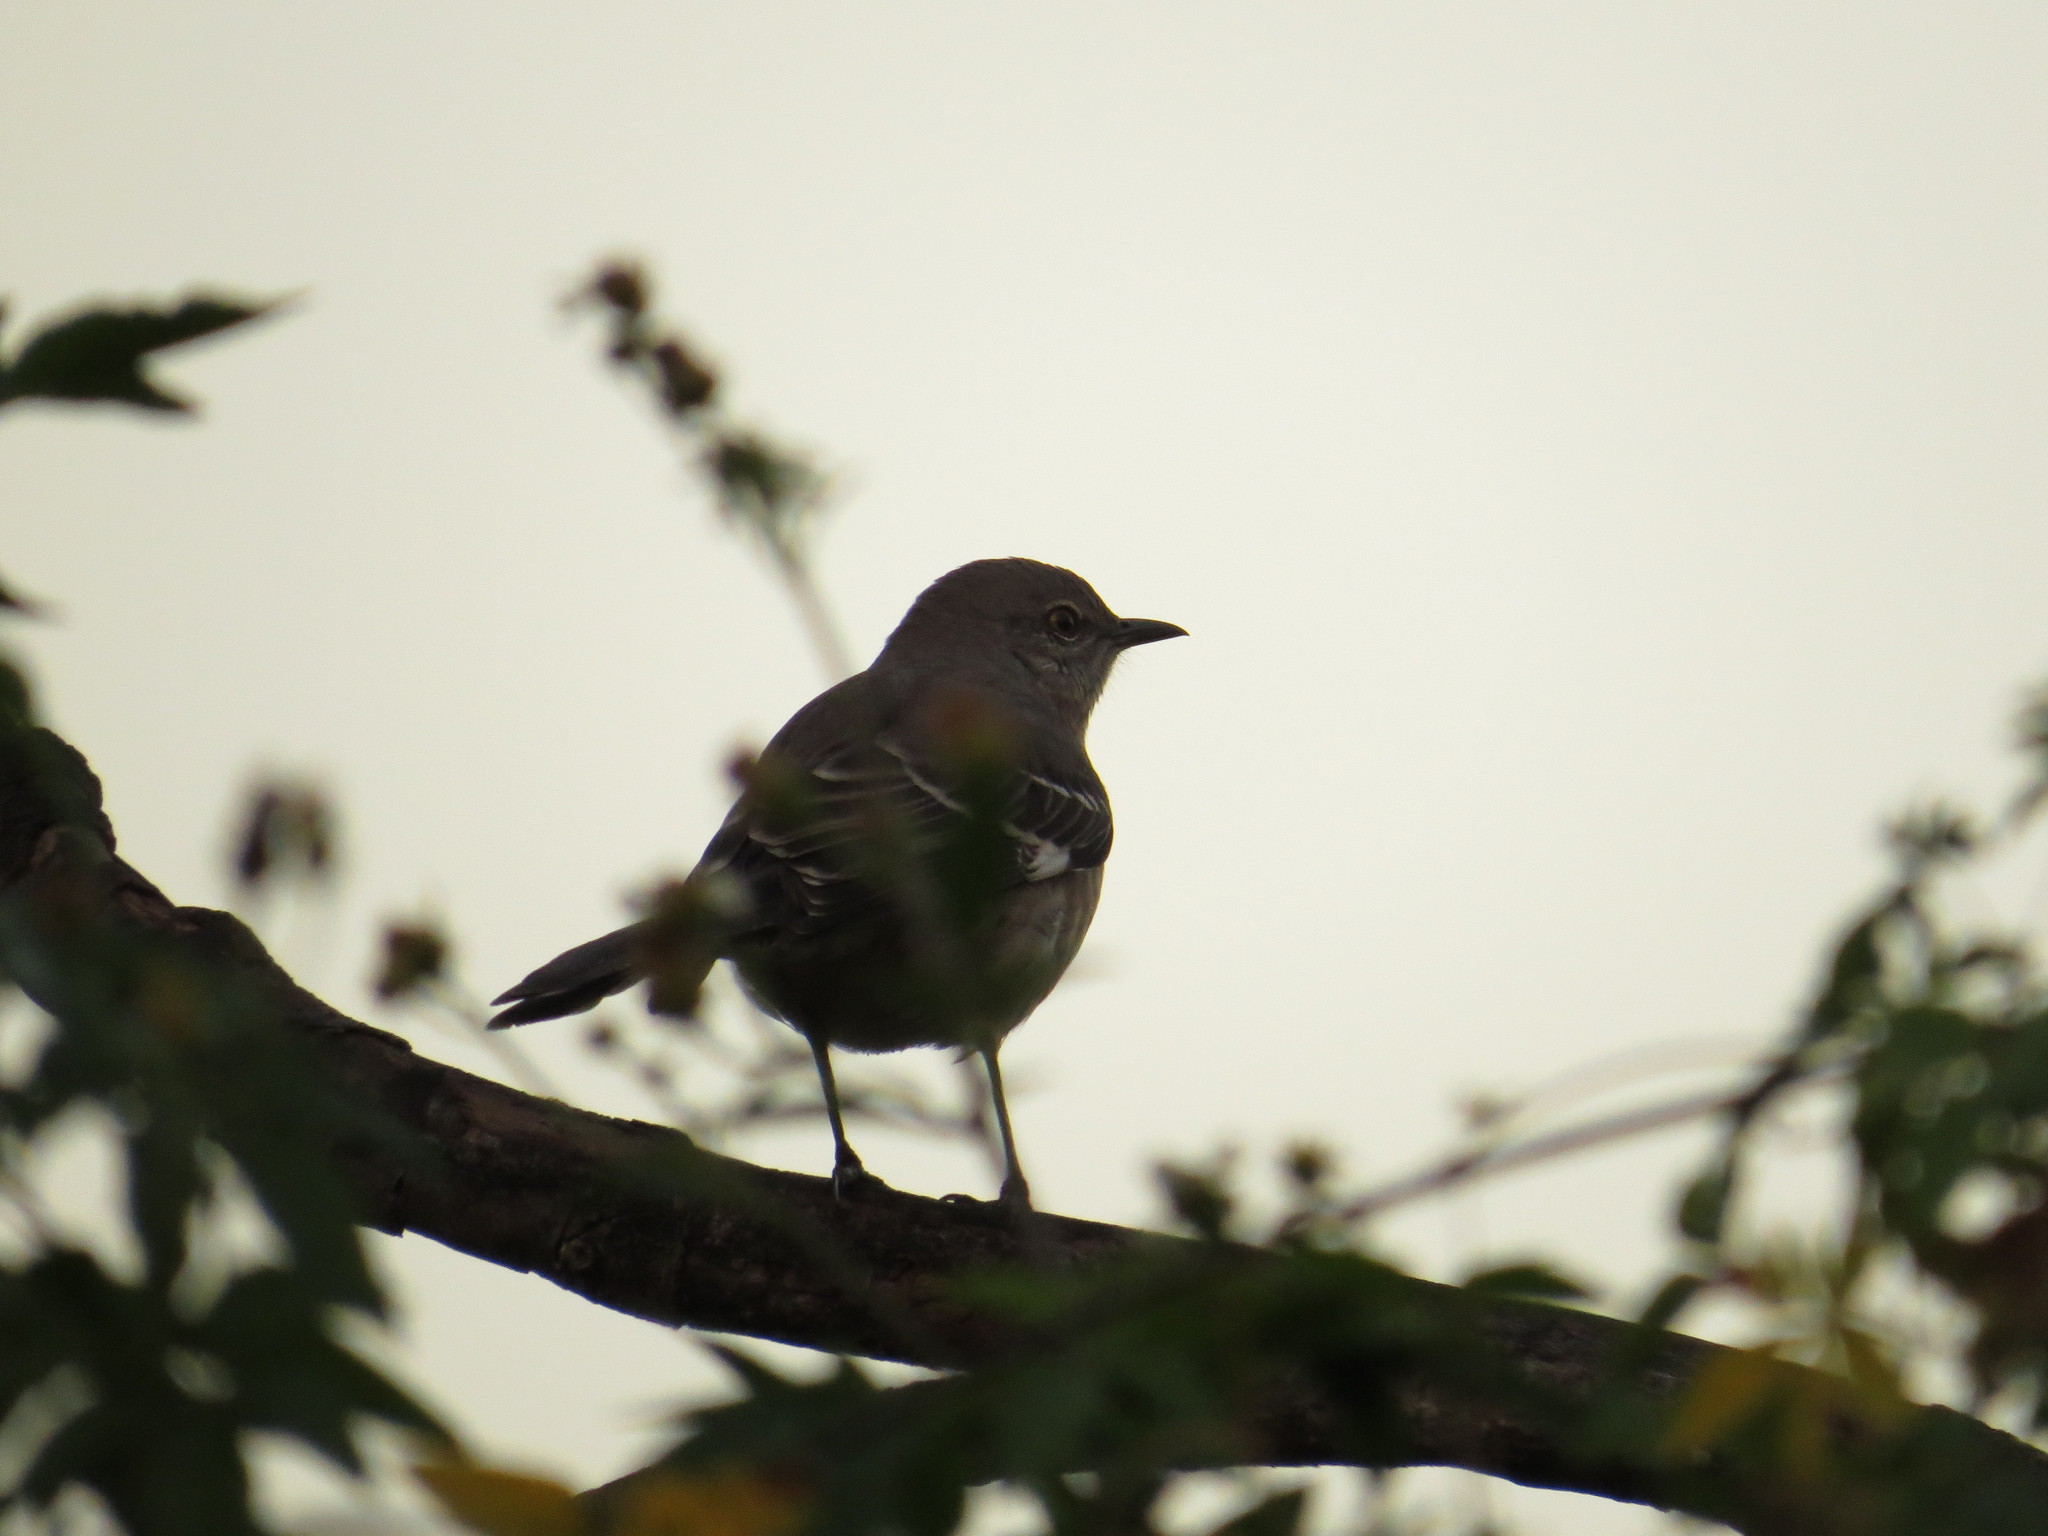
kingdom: Animalia
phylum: Chordata
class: Aves
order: Passeriformes
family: Mimidae
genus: Mimus
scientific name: Mimus polyglottos
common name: Northern mockingbird
